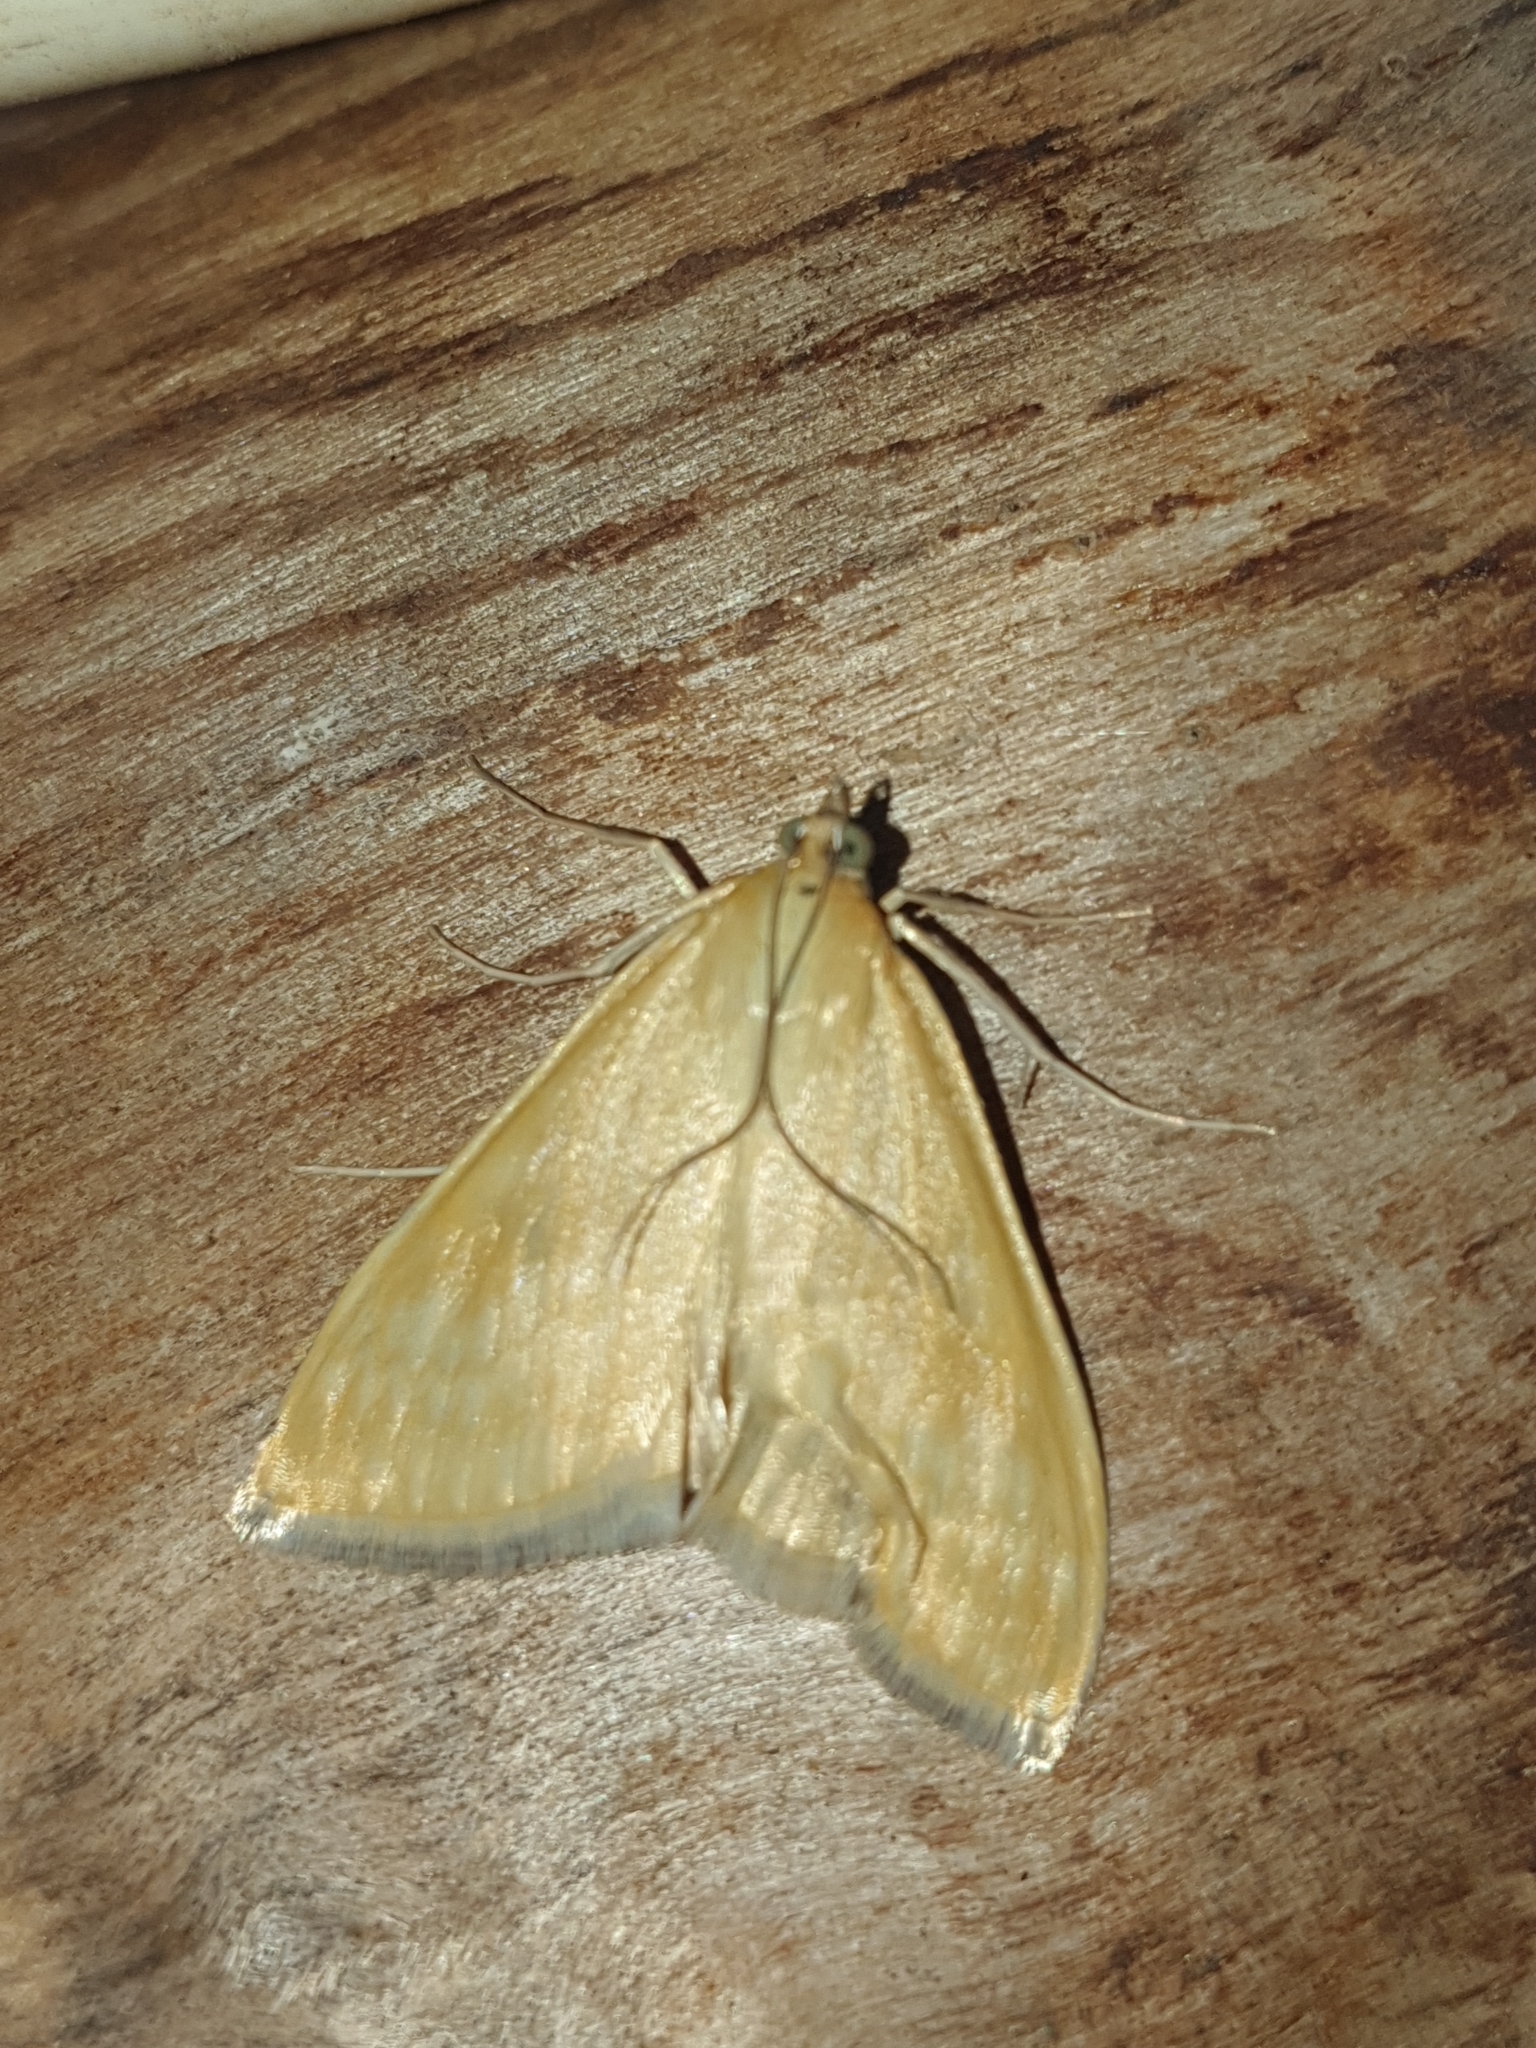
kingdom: Animalia
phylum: Arthropoda
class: Insecta
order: Lepidoptera
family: Crambidae
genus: Sitochroa
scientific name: Sitochroa verticalis
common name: Lesser pearl
